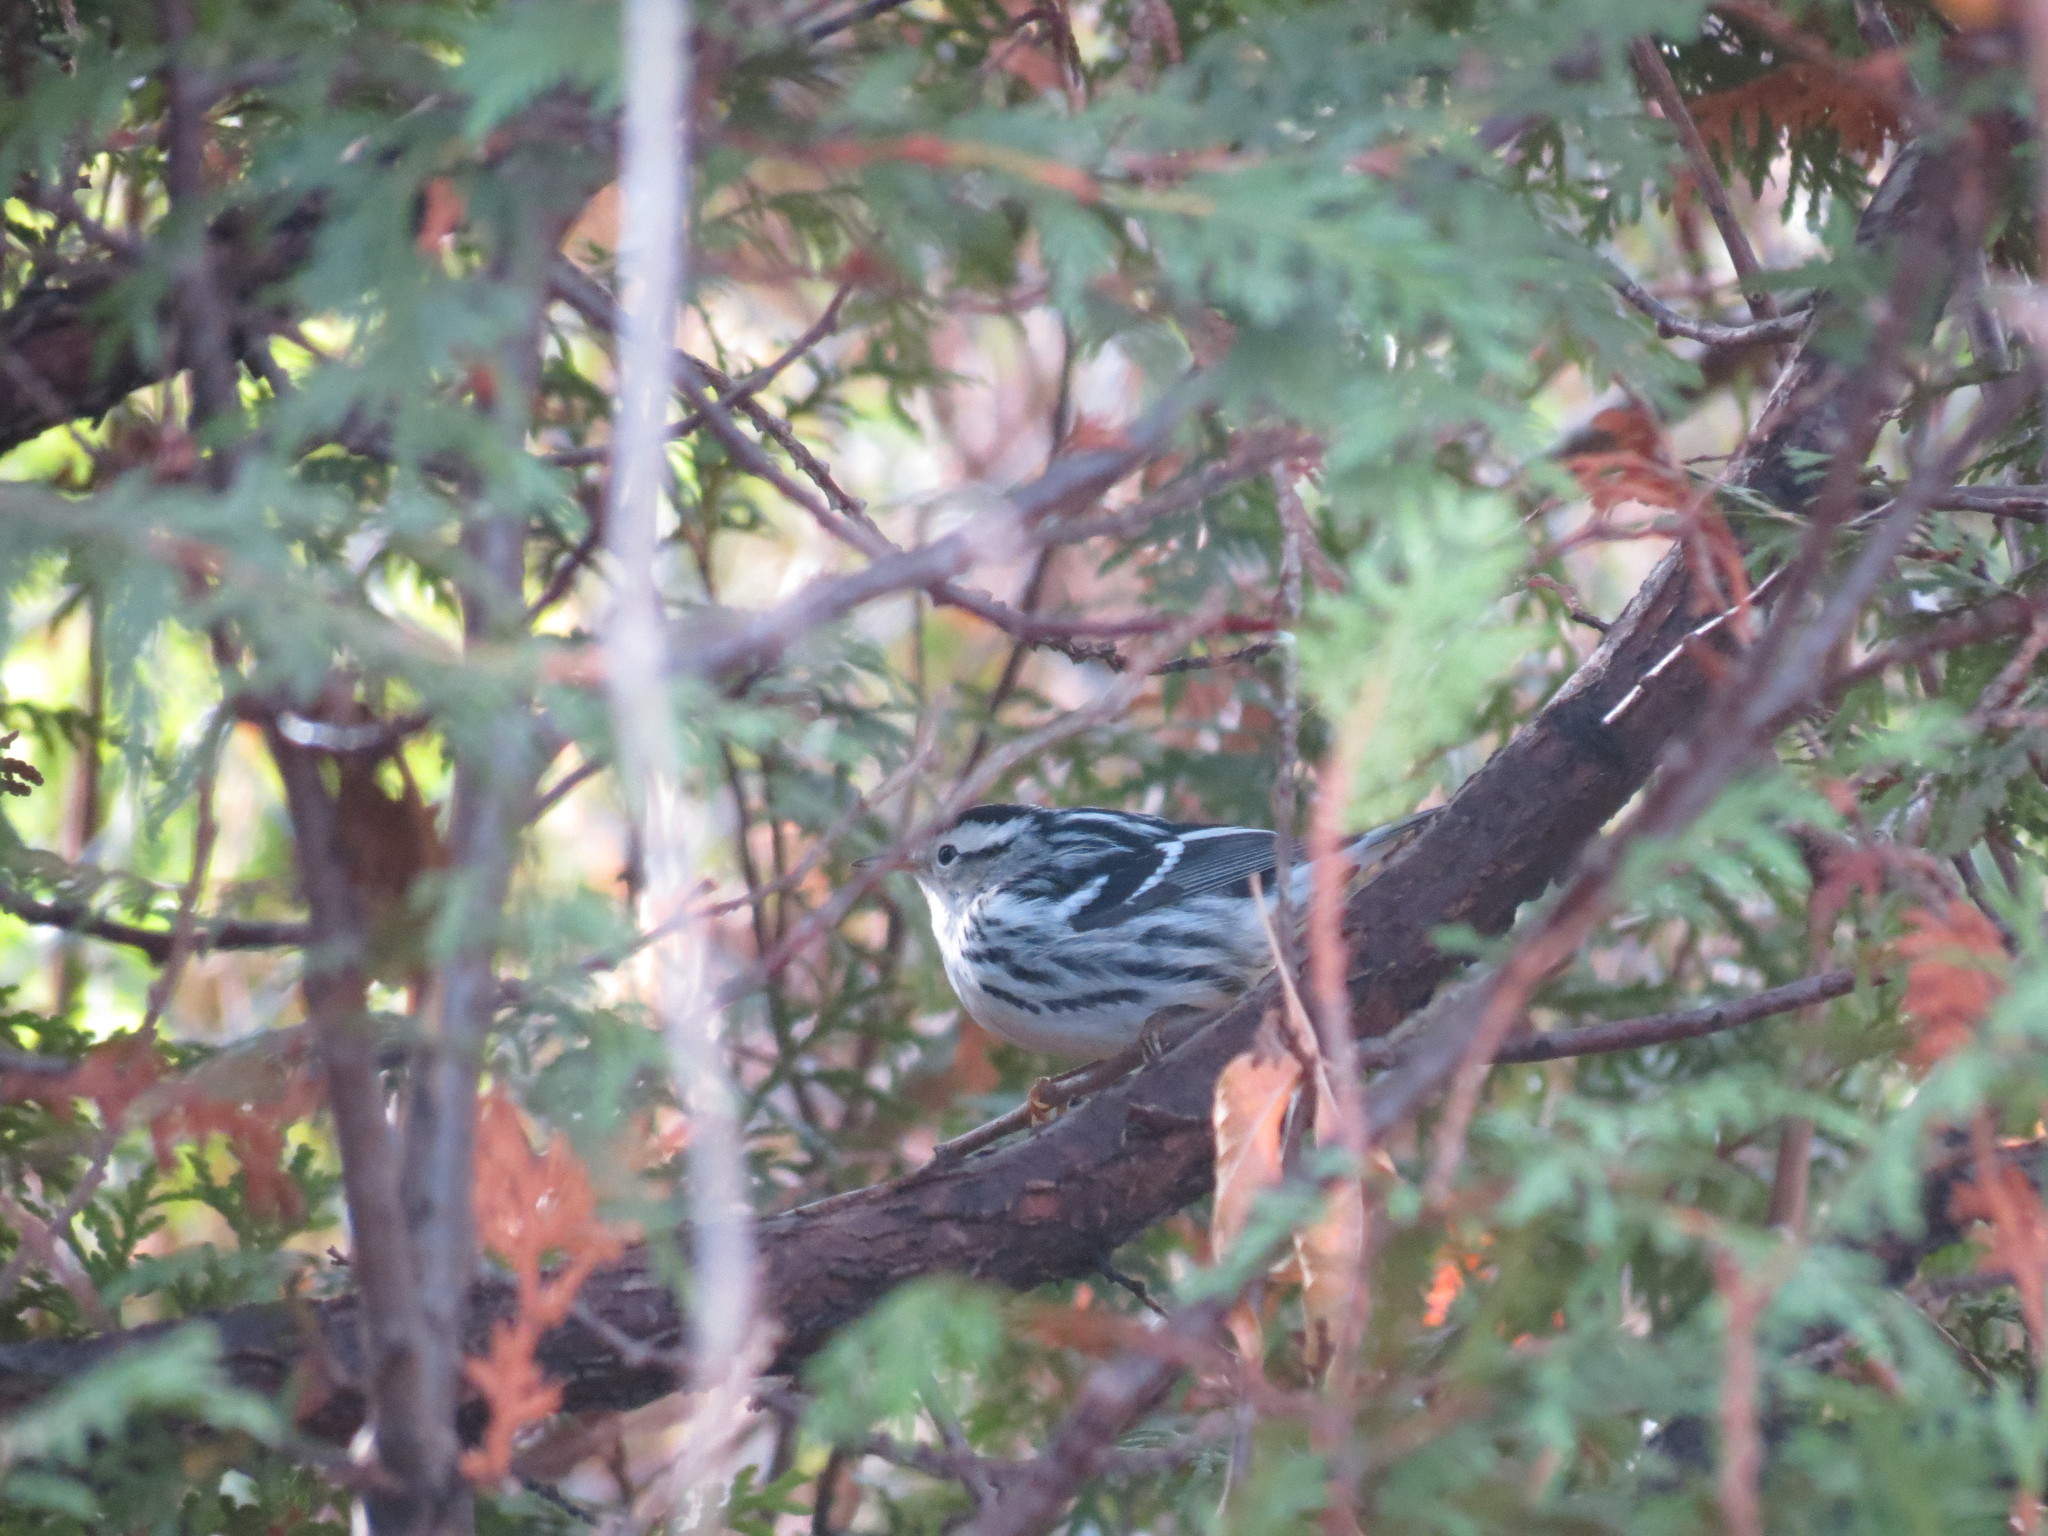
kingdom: Animalia
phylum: Chordata
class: Aves
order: Passeriformes
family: Parulidae
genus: Mniotilta
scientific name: Mniotilta varia
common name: Black-and-white warbler
